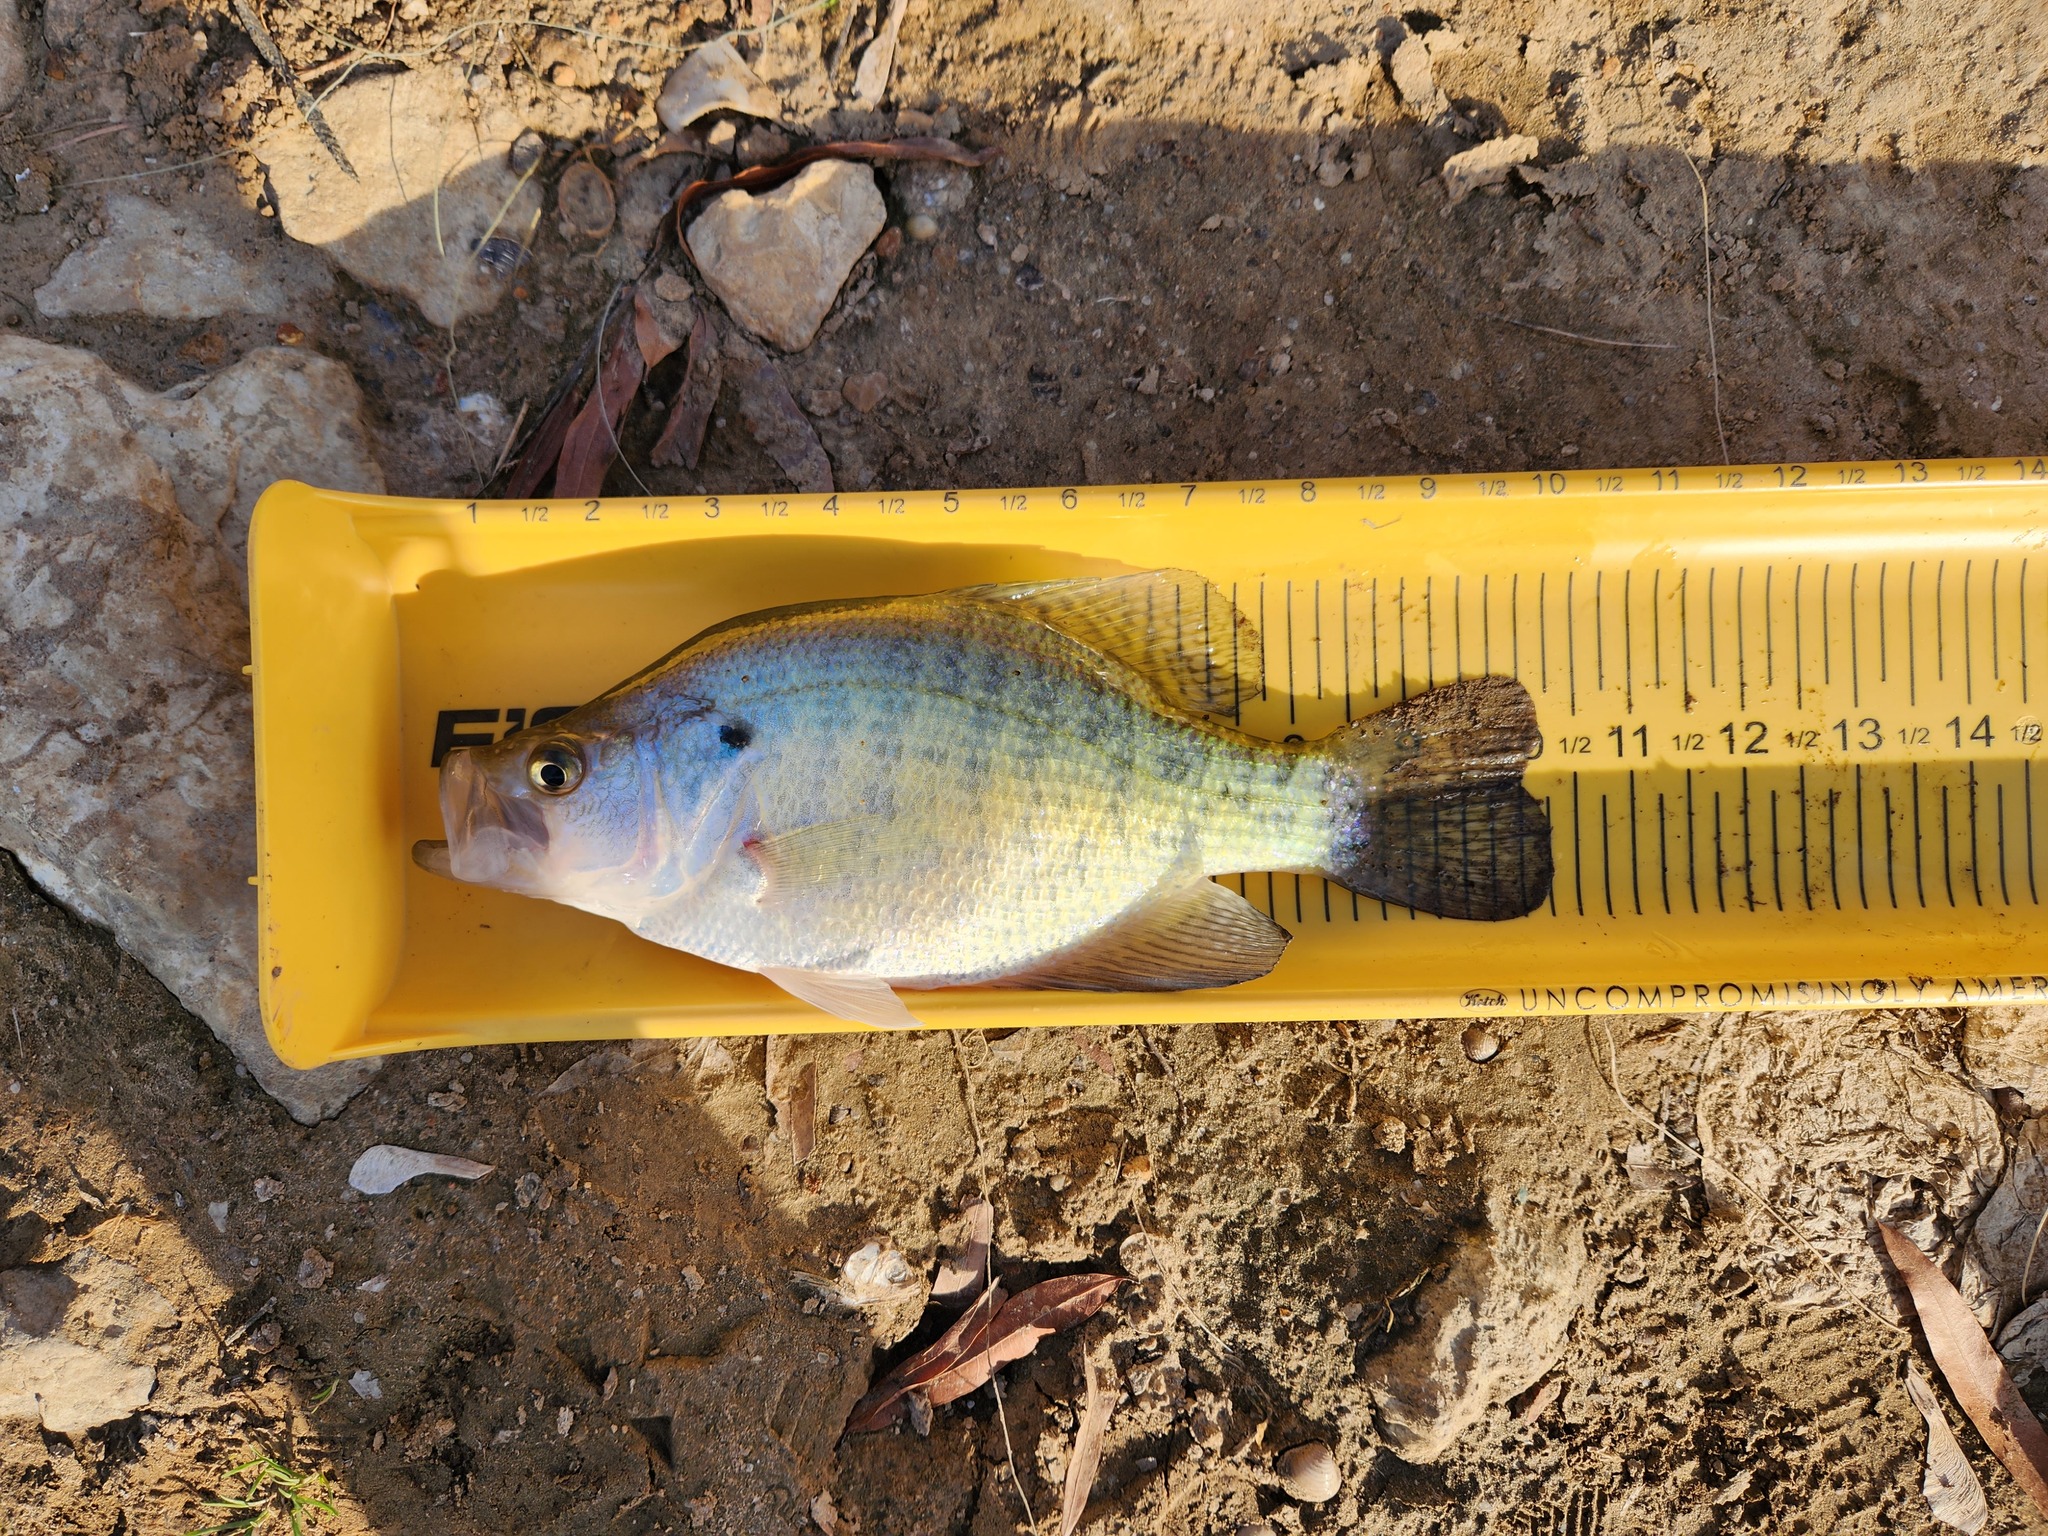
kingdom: Animalia
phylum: Chordata
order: Perciformes
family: Centrarchidae
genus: Pomoxis
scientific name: Pomoxis annularis
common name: White crappie
